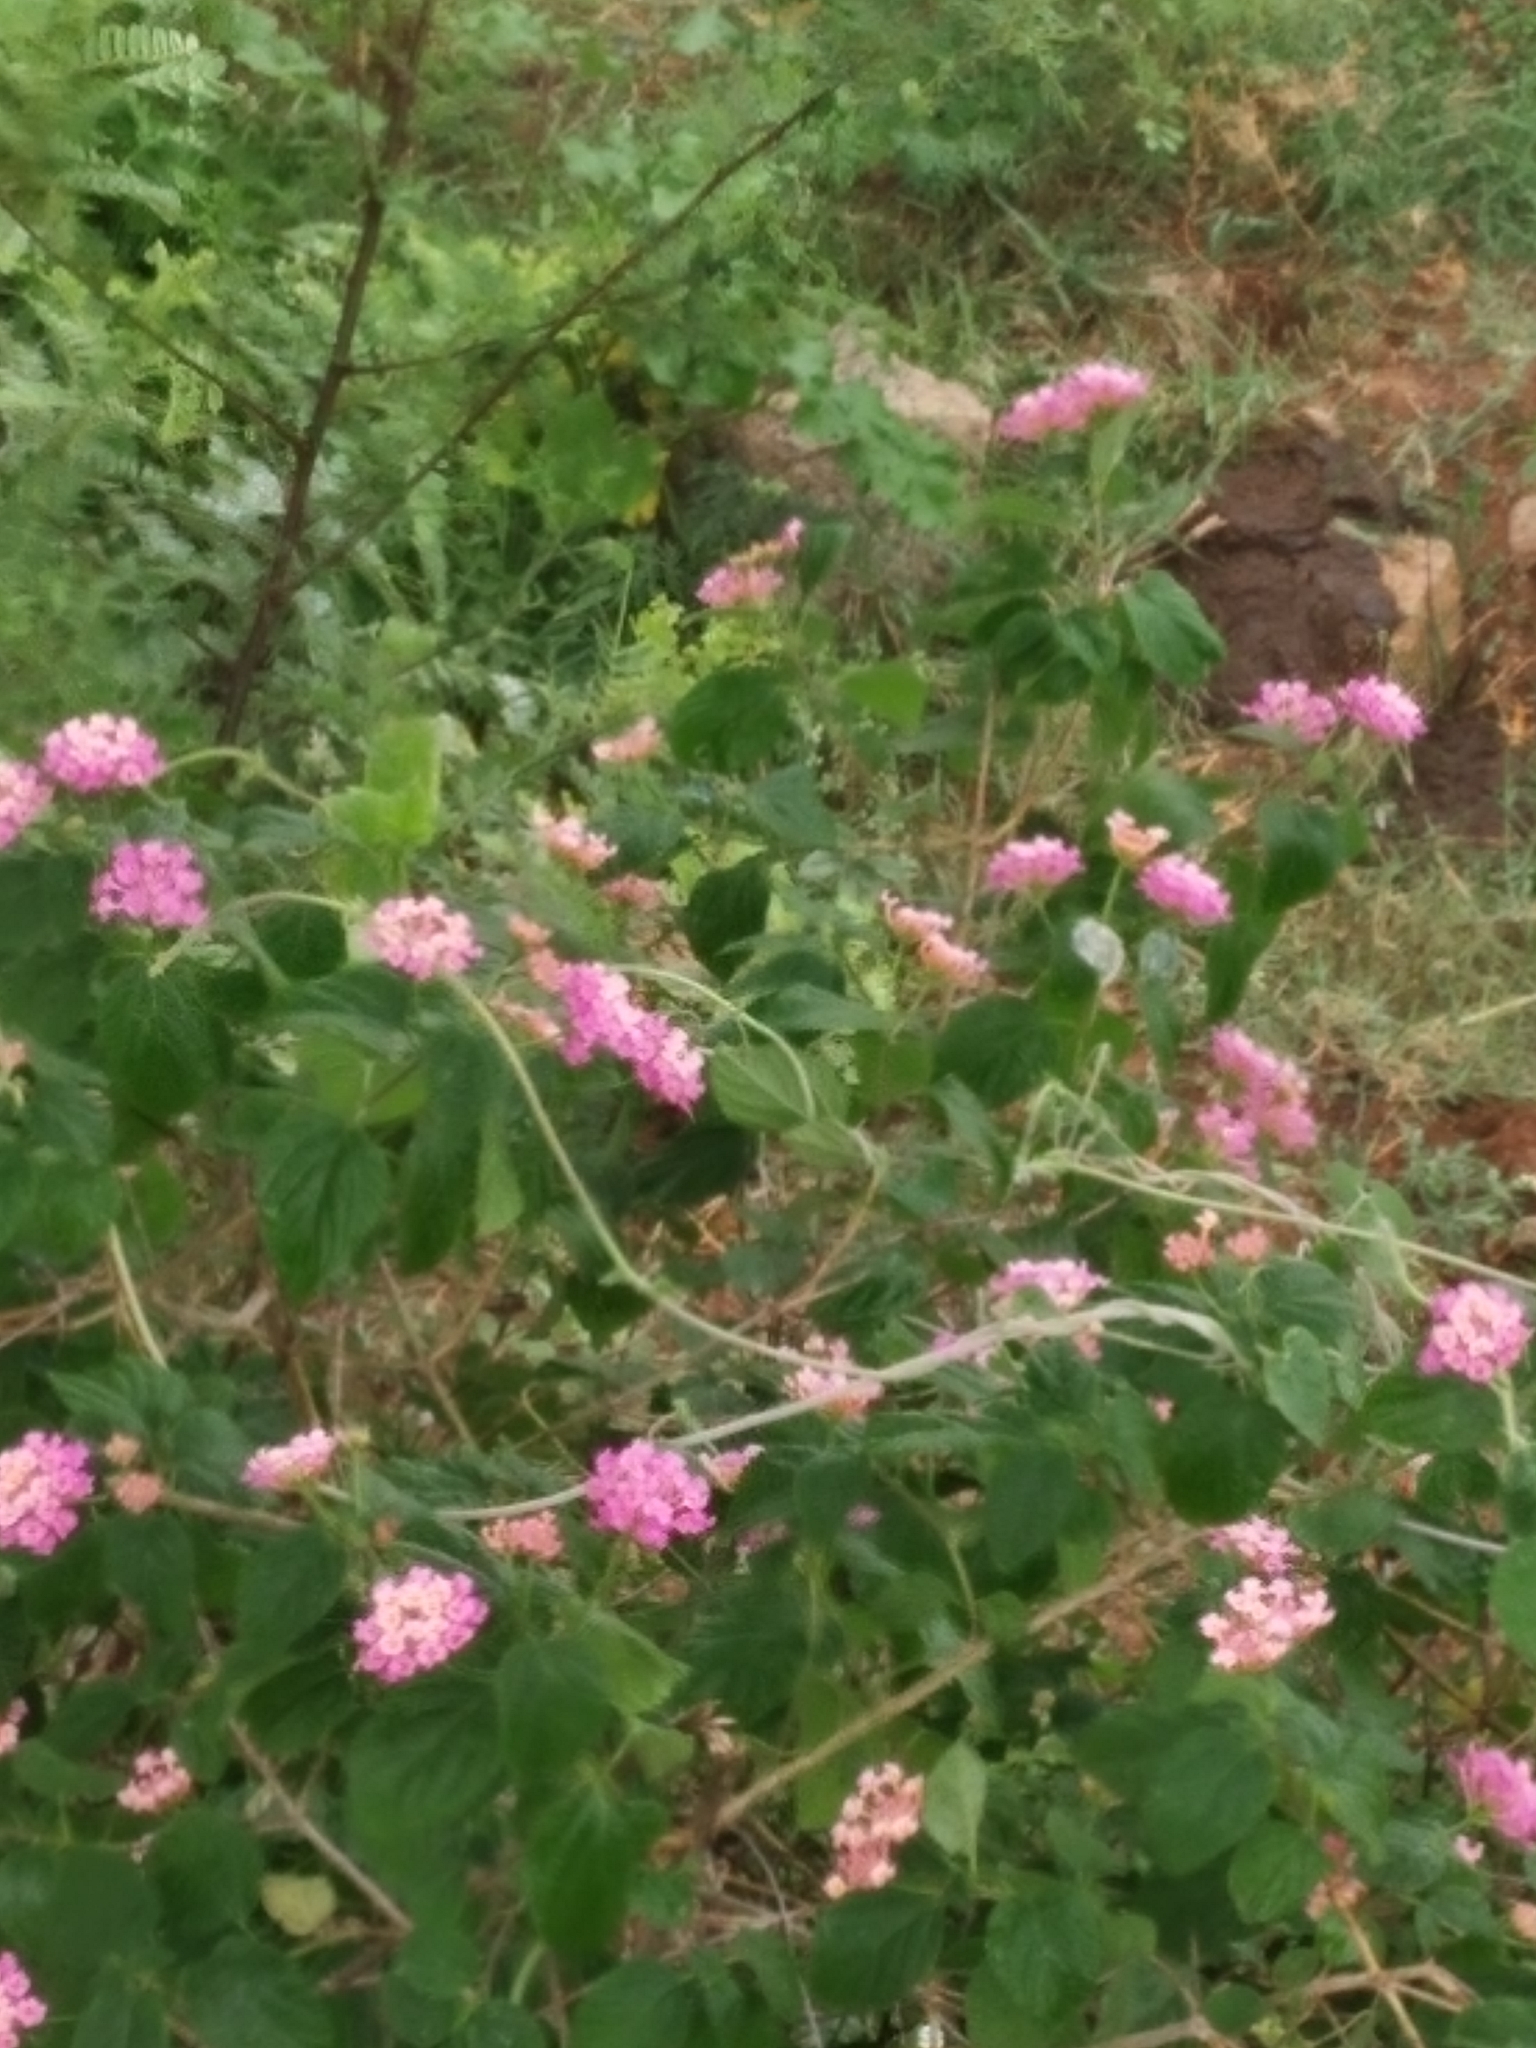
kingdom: Plantae
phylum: Tracheophyta
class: Magnoliopsida
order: Lamiales
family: Verbenaceae
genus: Lantana
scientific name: Lantana camara
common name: Lantana
